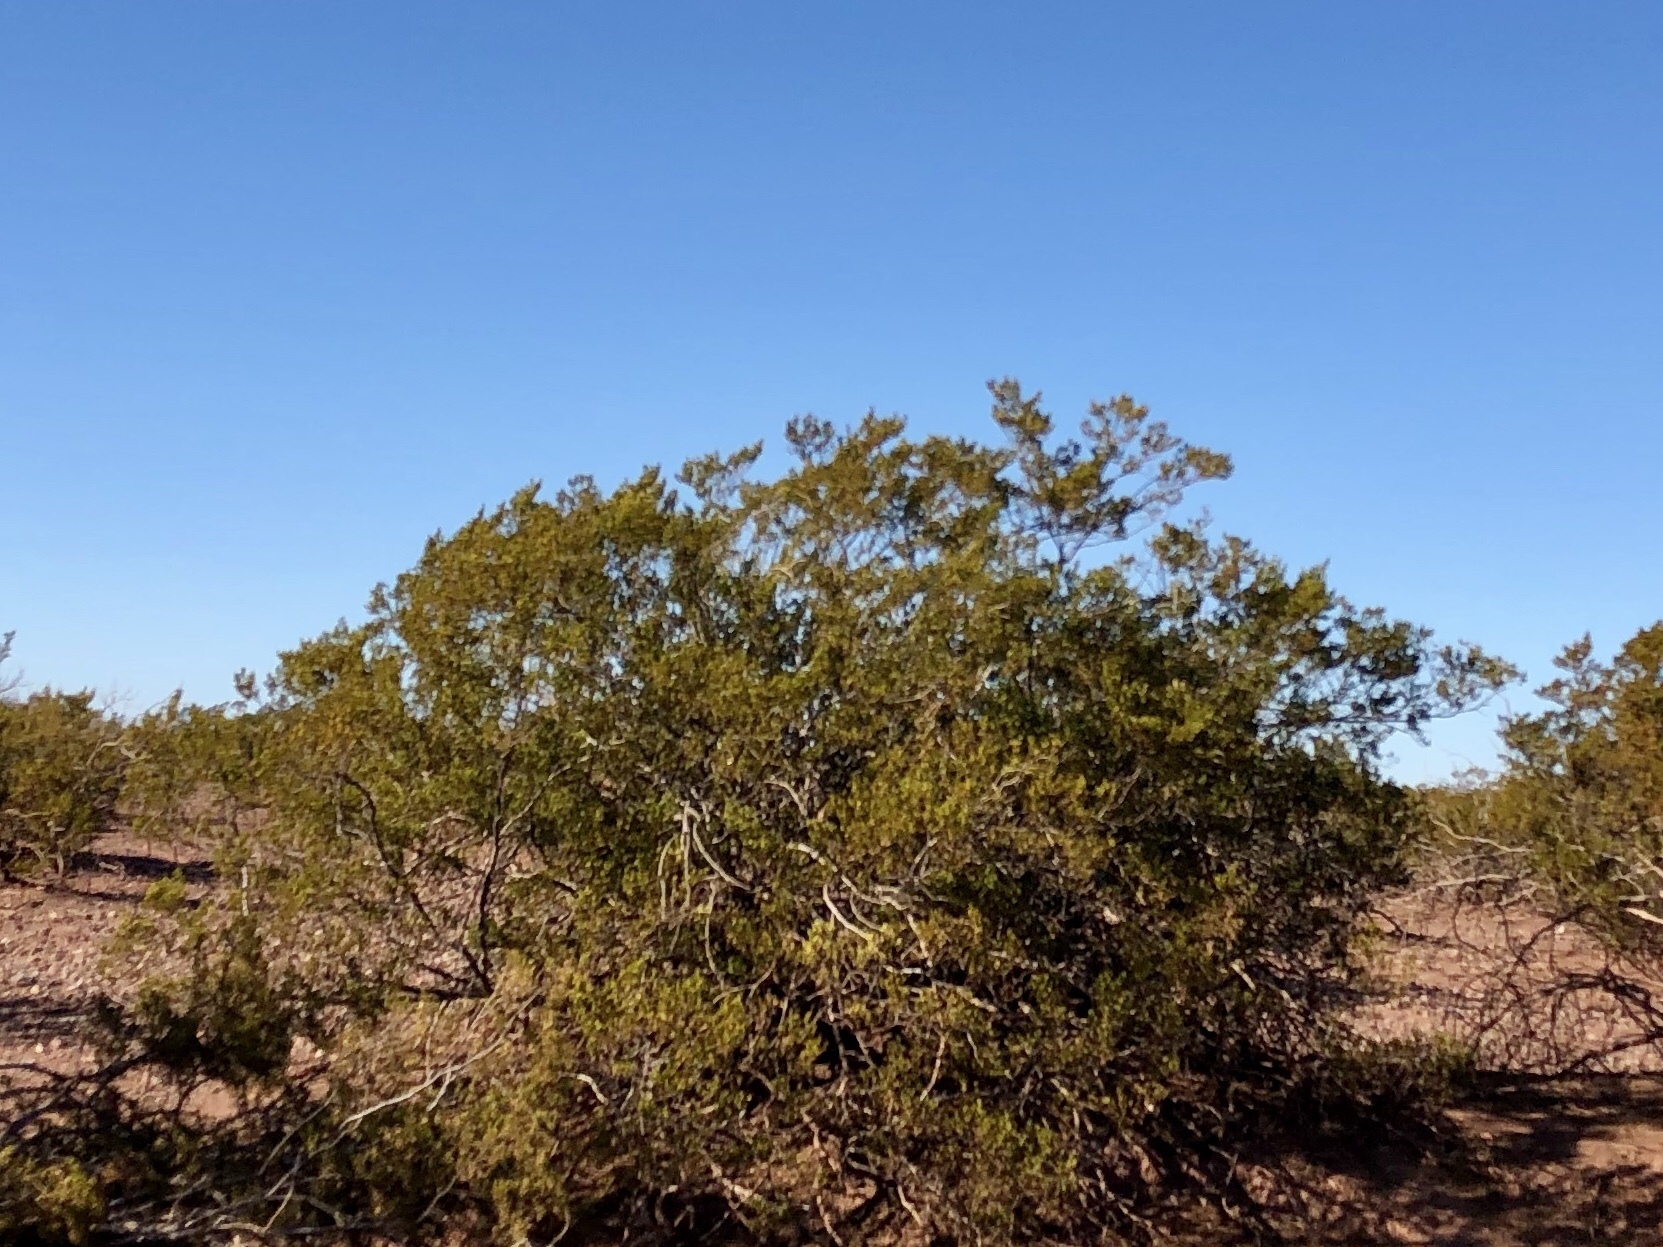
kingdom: Plantae
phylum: Tracheophyta
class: Magnoliopsida
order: Zygophyllales
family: Zygophyllaceae
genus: Larrea
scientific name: Larrea tridentata
